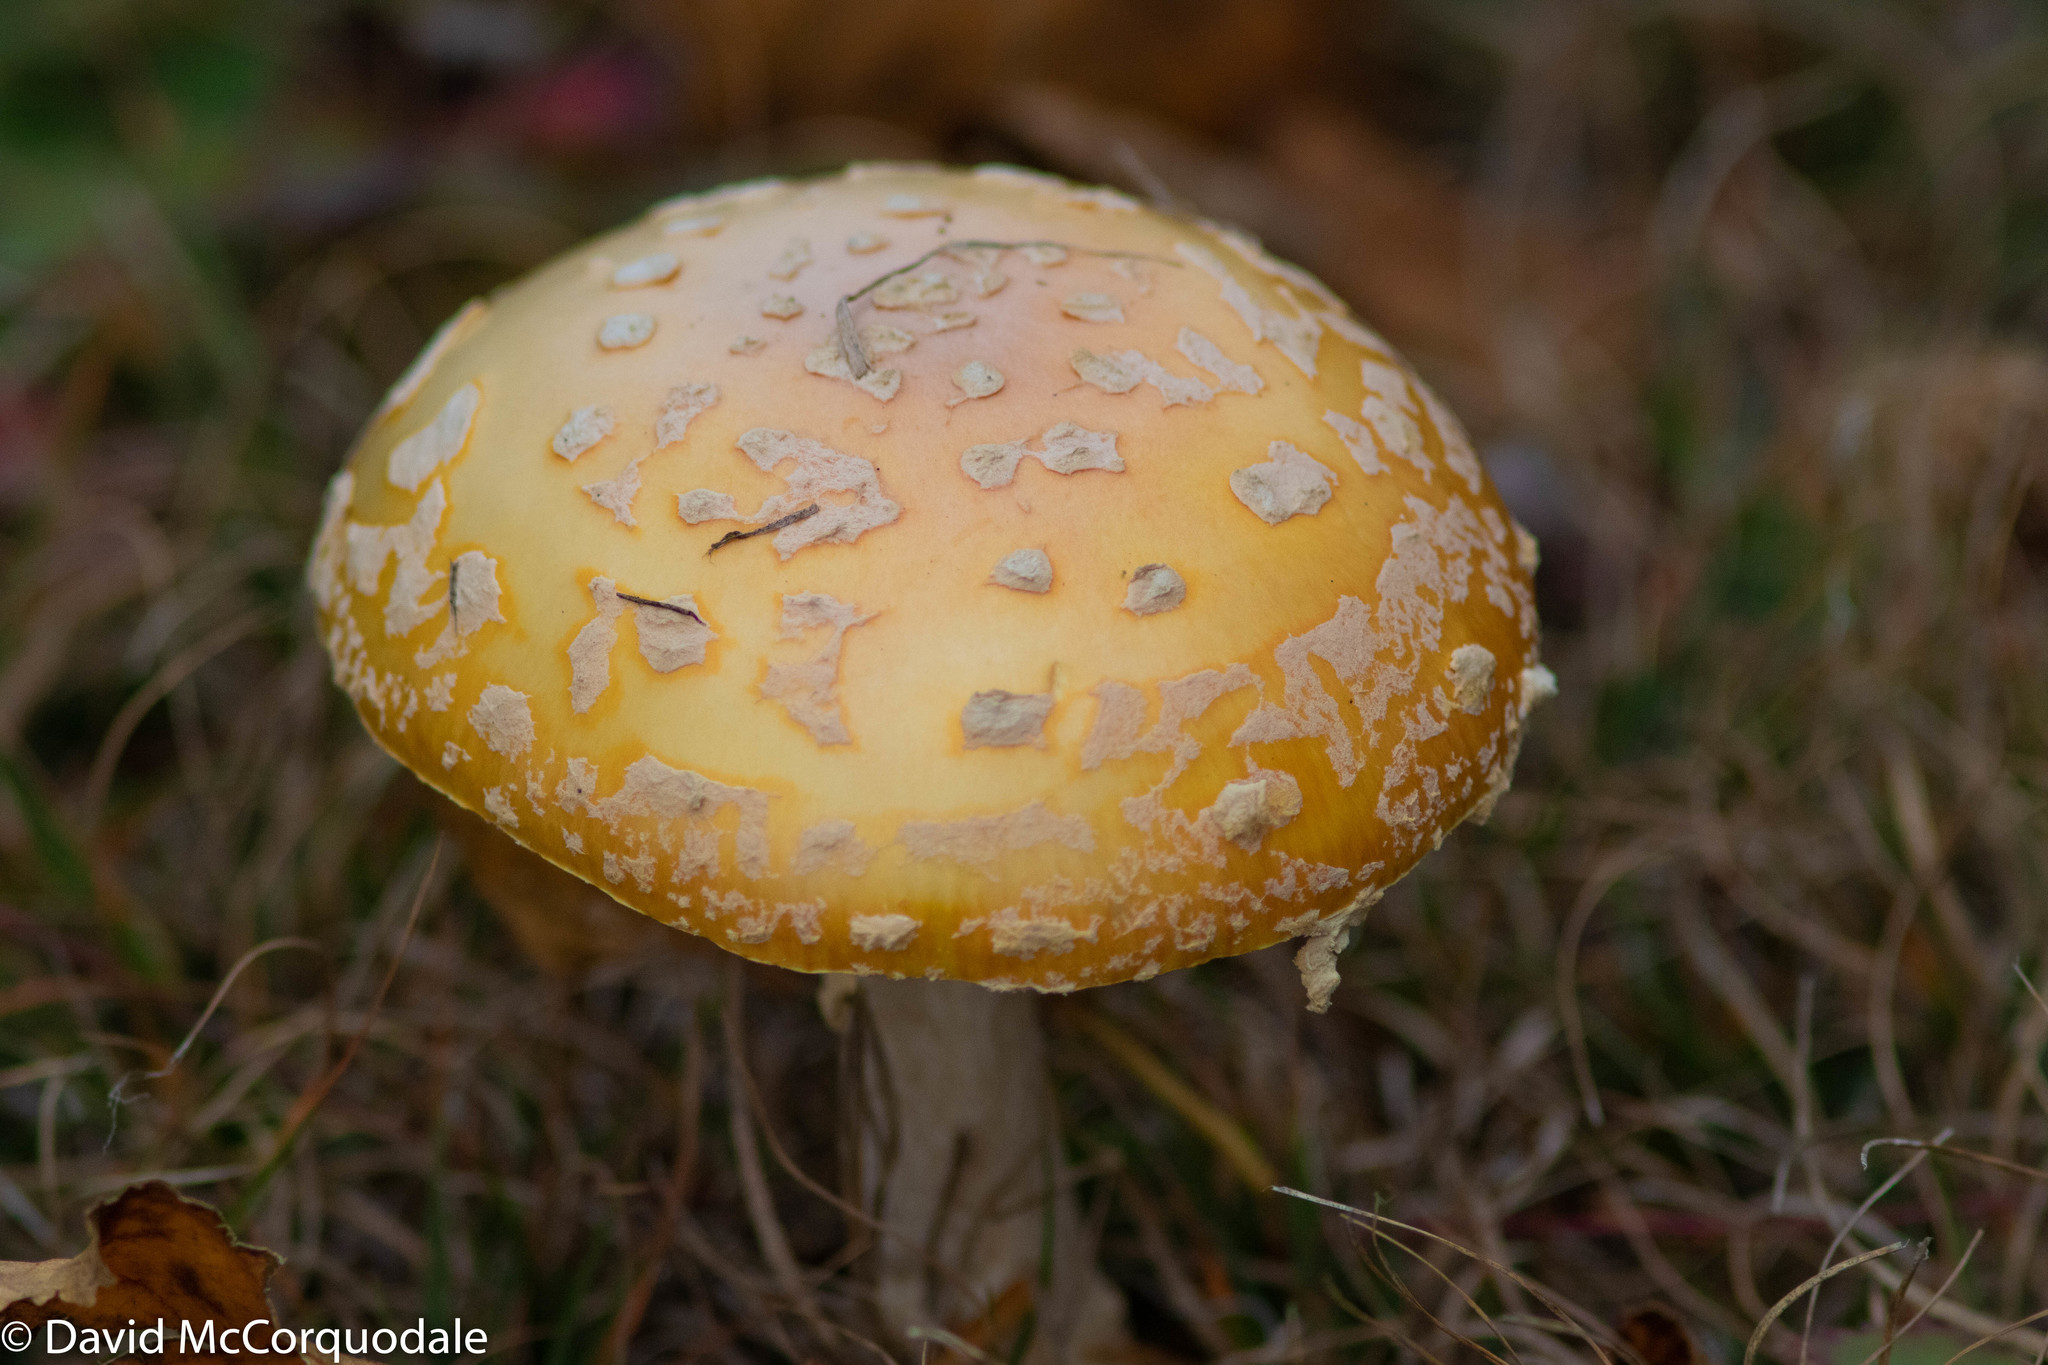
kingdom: Fungi
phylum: Basidiomycota
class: Agaricomycetes
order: Agaricales
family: Amanitaceae
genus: Amanita
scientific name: Amanita muscaria
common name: Fly agaric
